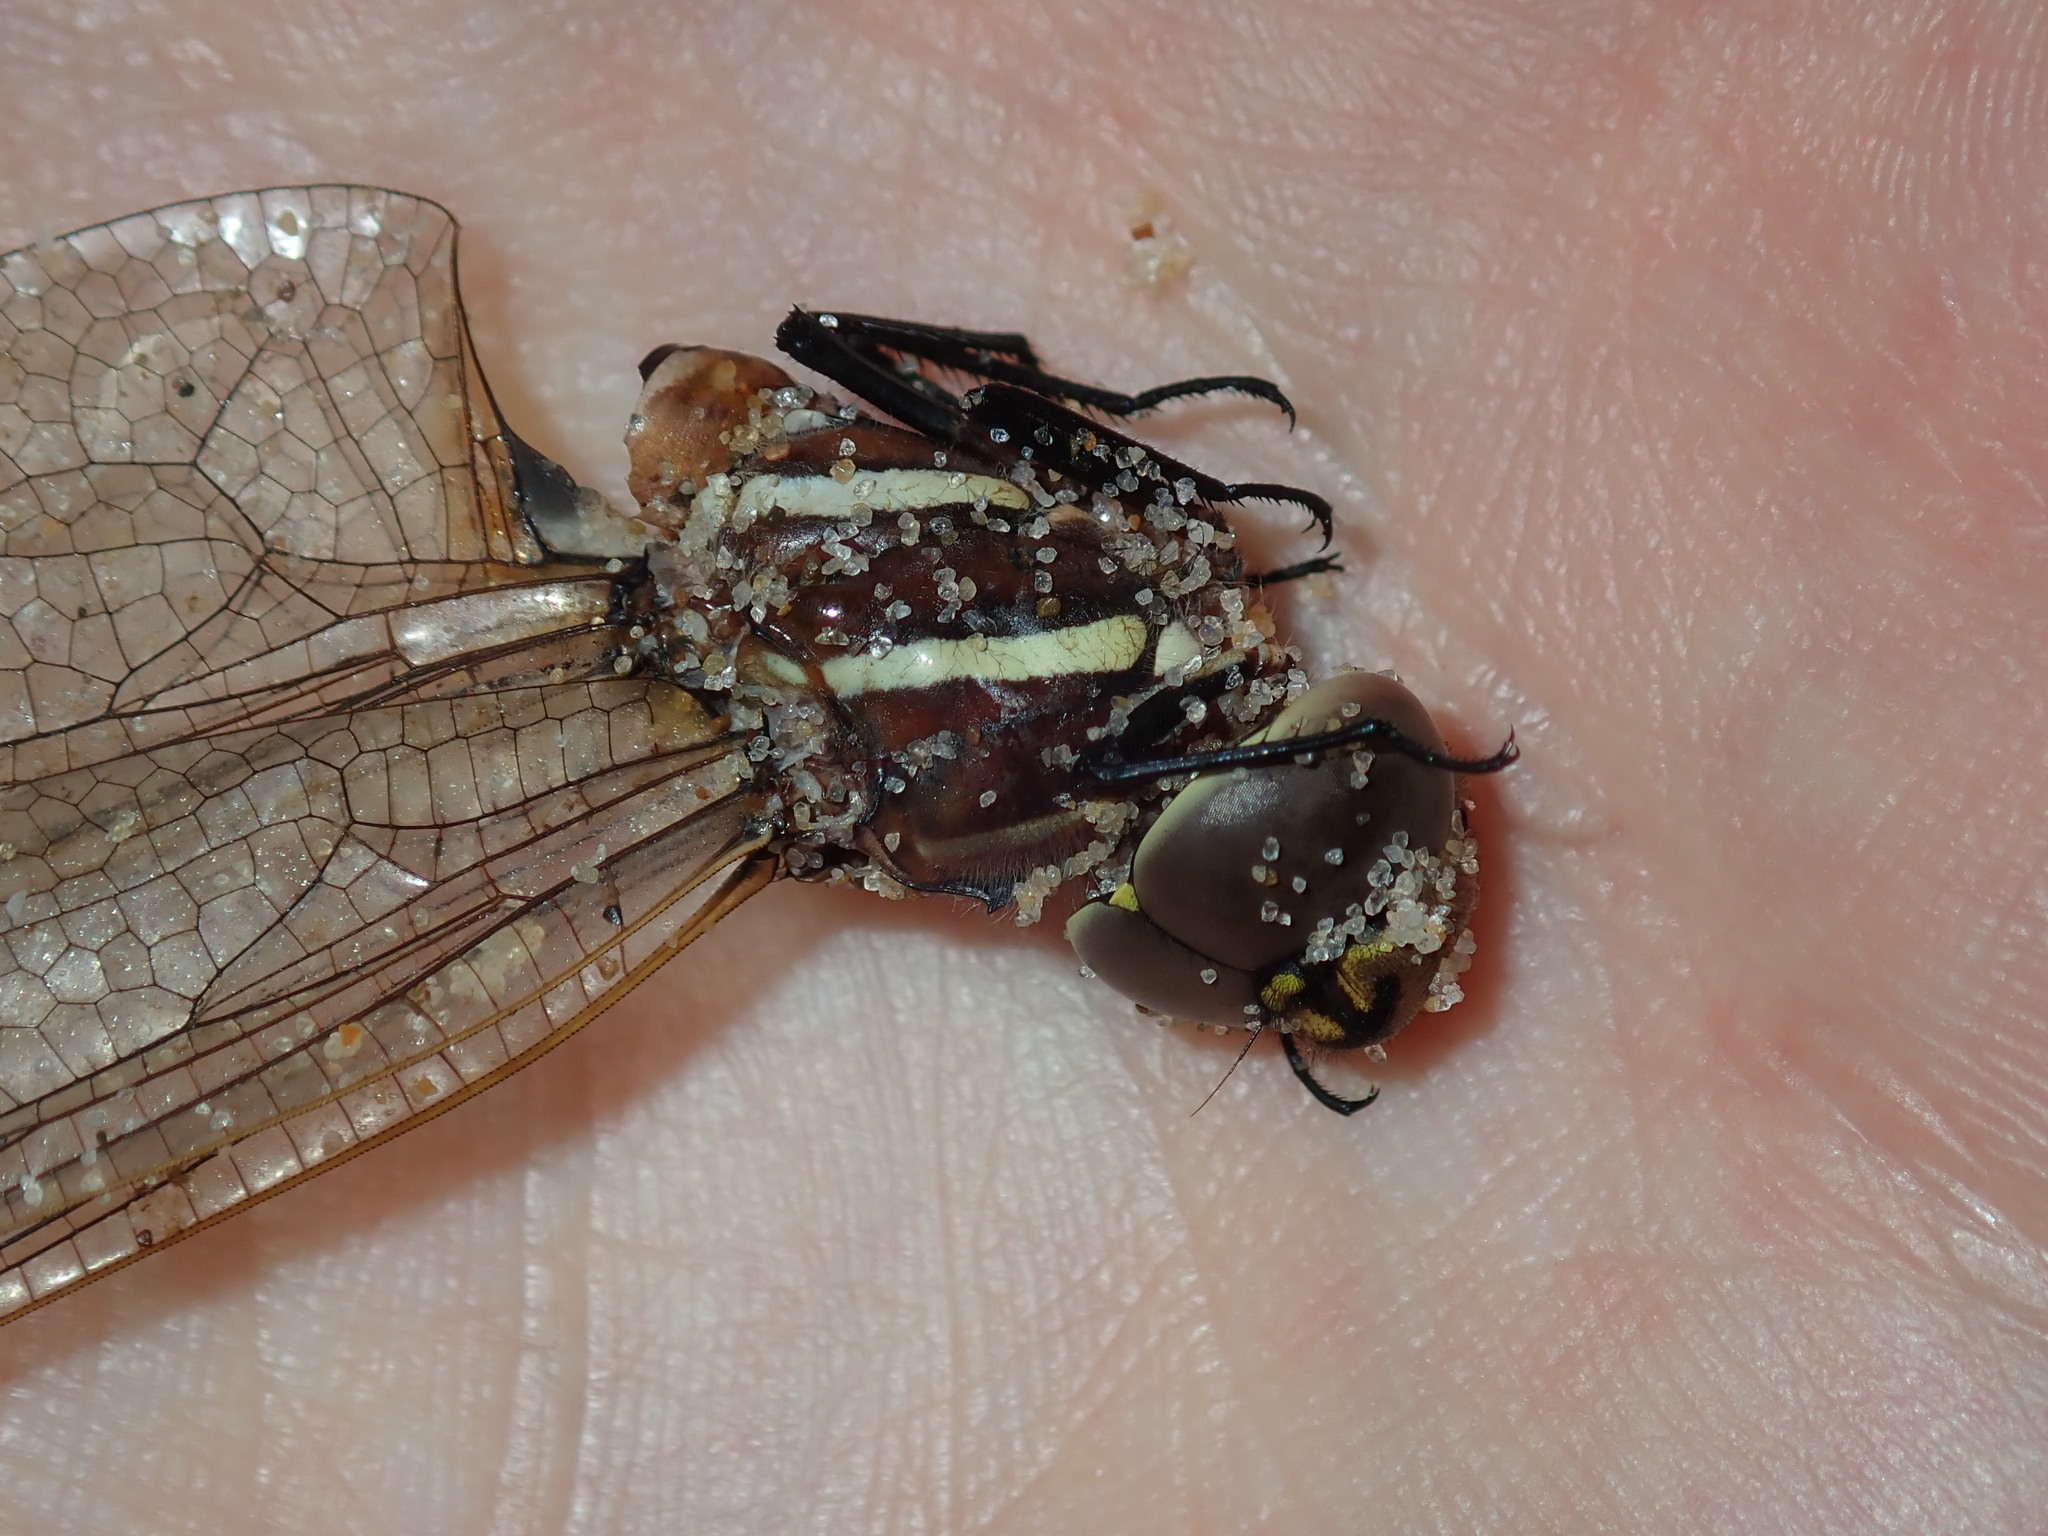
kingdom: Animalia
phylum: Arthropoda
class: Insecta
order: Odonata
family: Aeshnidae
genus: Aeshna
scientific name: Aeshna brevistyla
